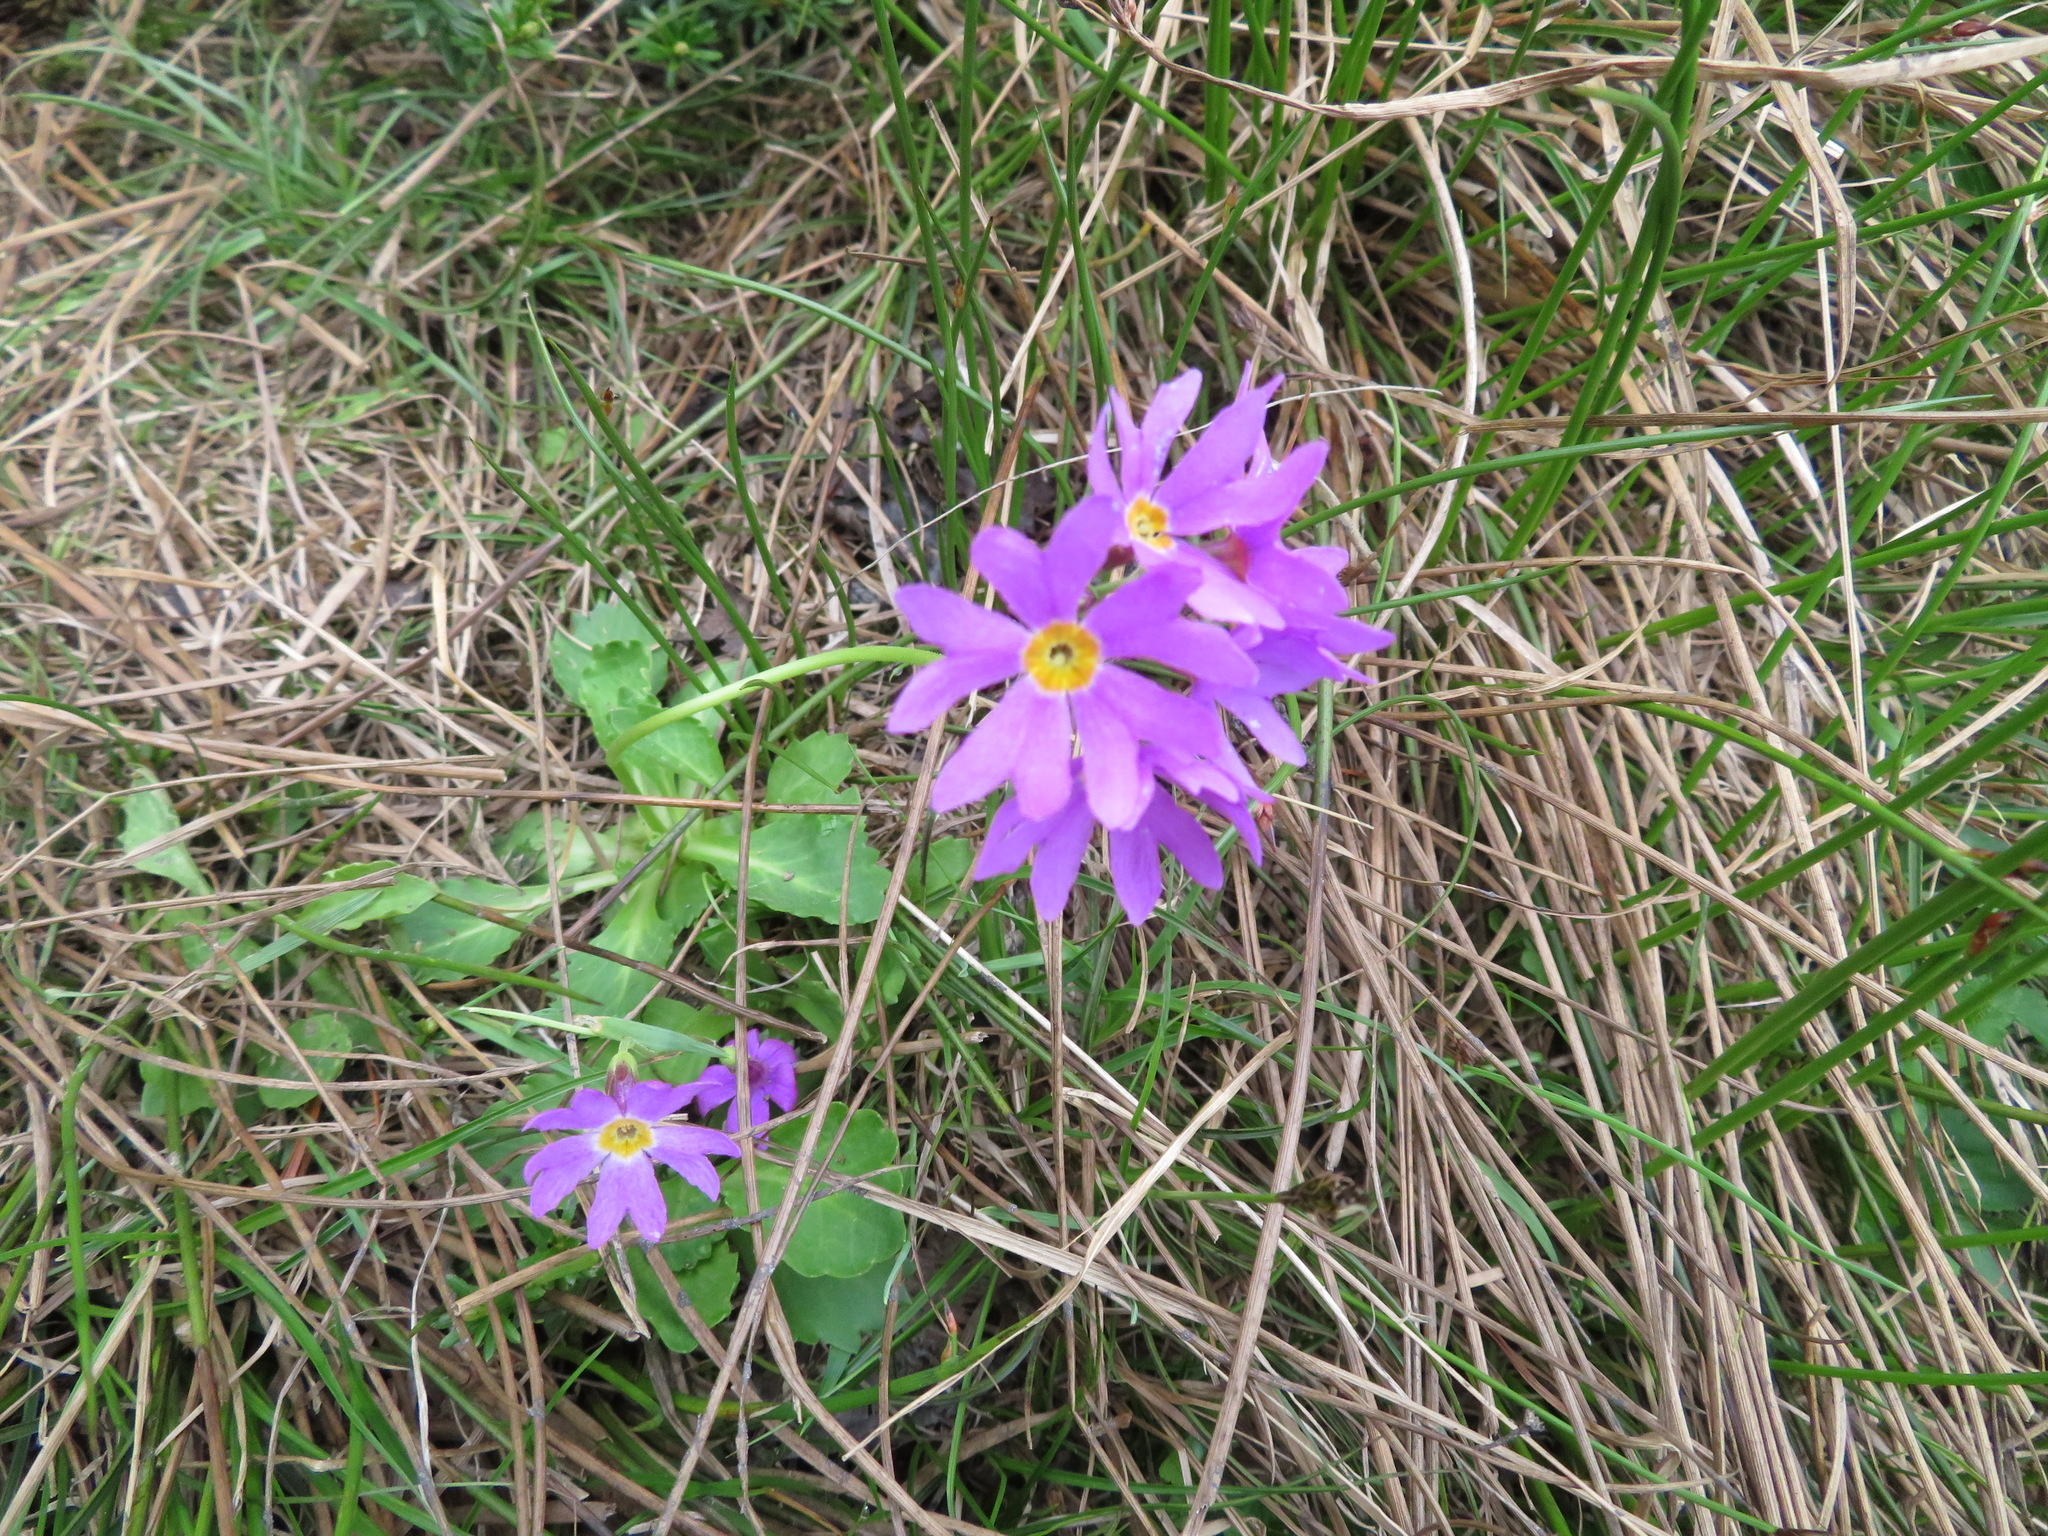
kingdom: Plantae
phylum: Tracheophyta
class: Magnoliopsida
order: Ericales
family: Primulaceae
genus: Primula
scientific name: Primula cuneifolia
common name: Wedge-leaved primrose
